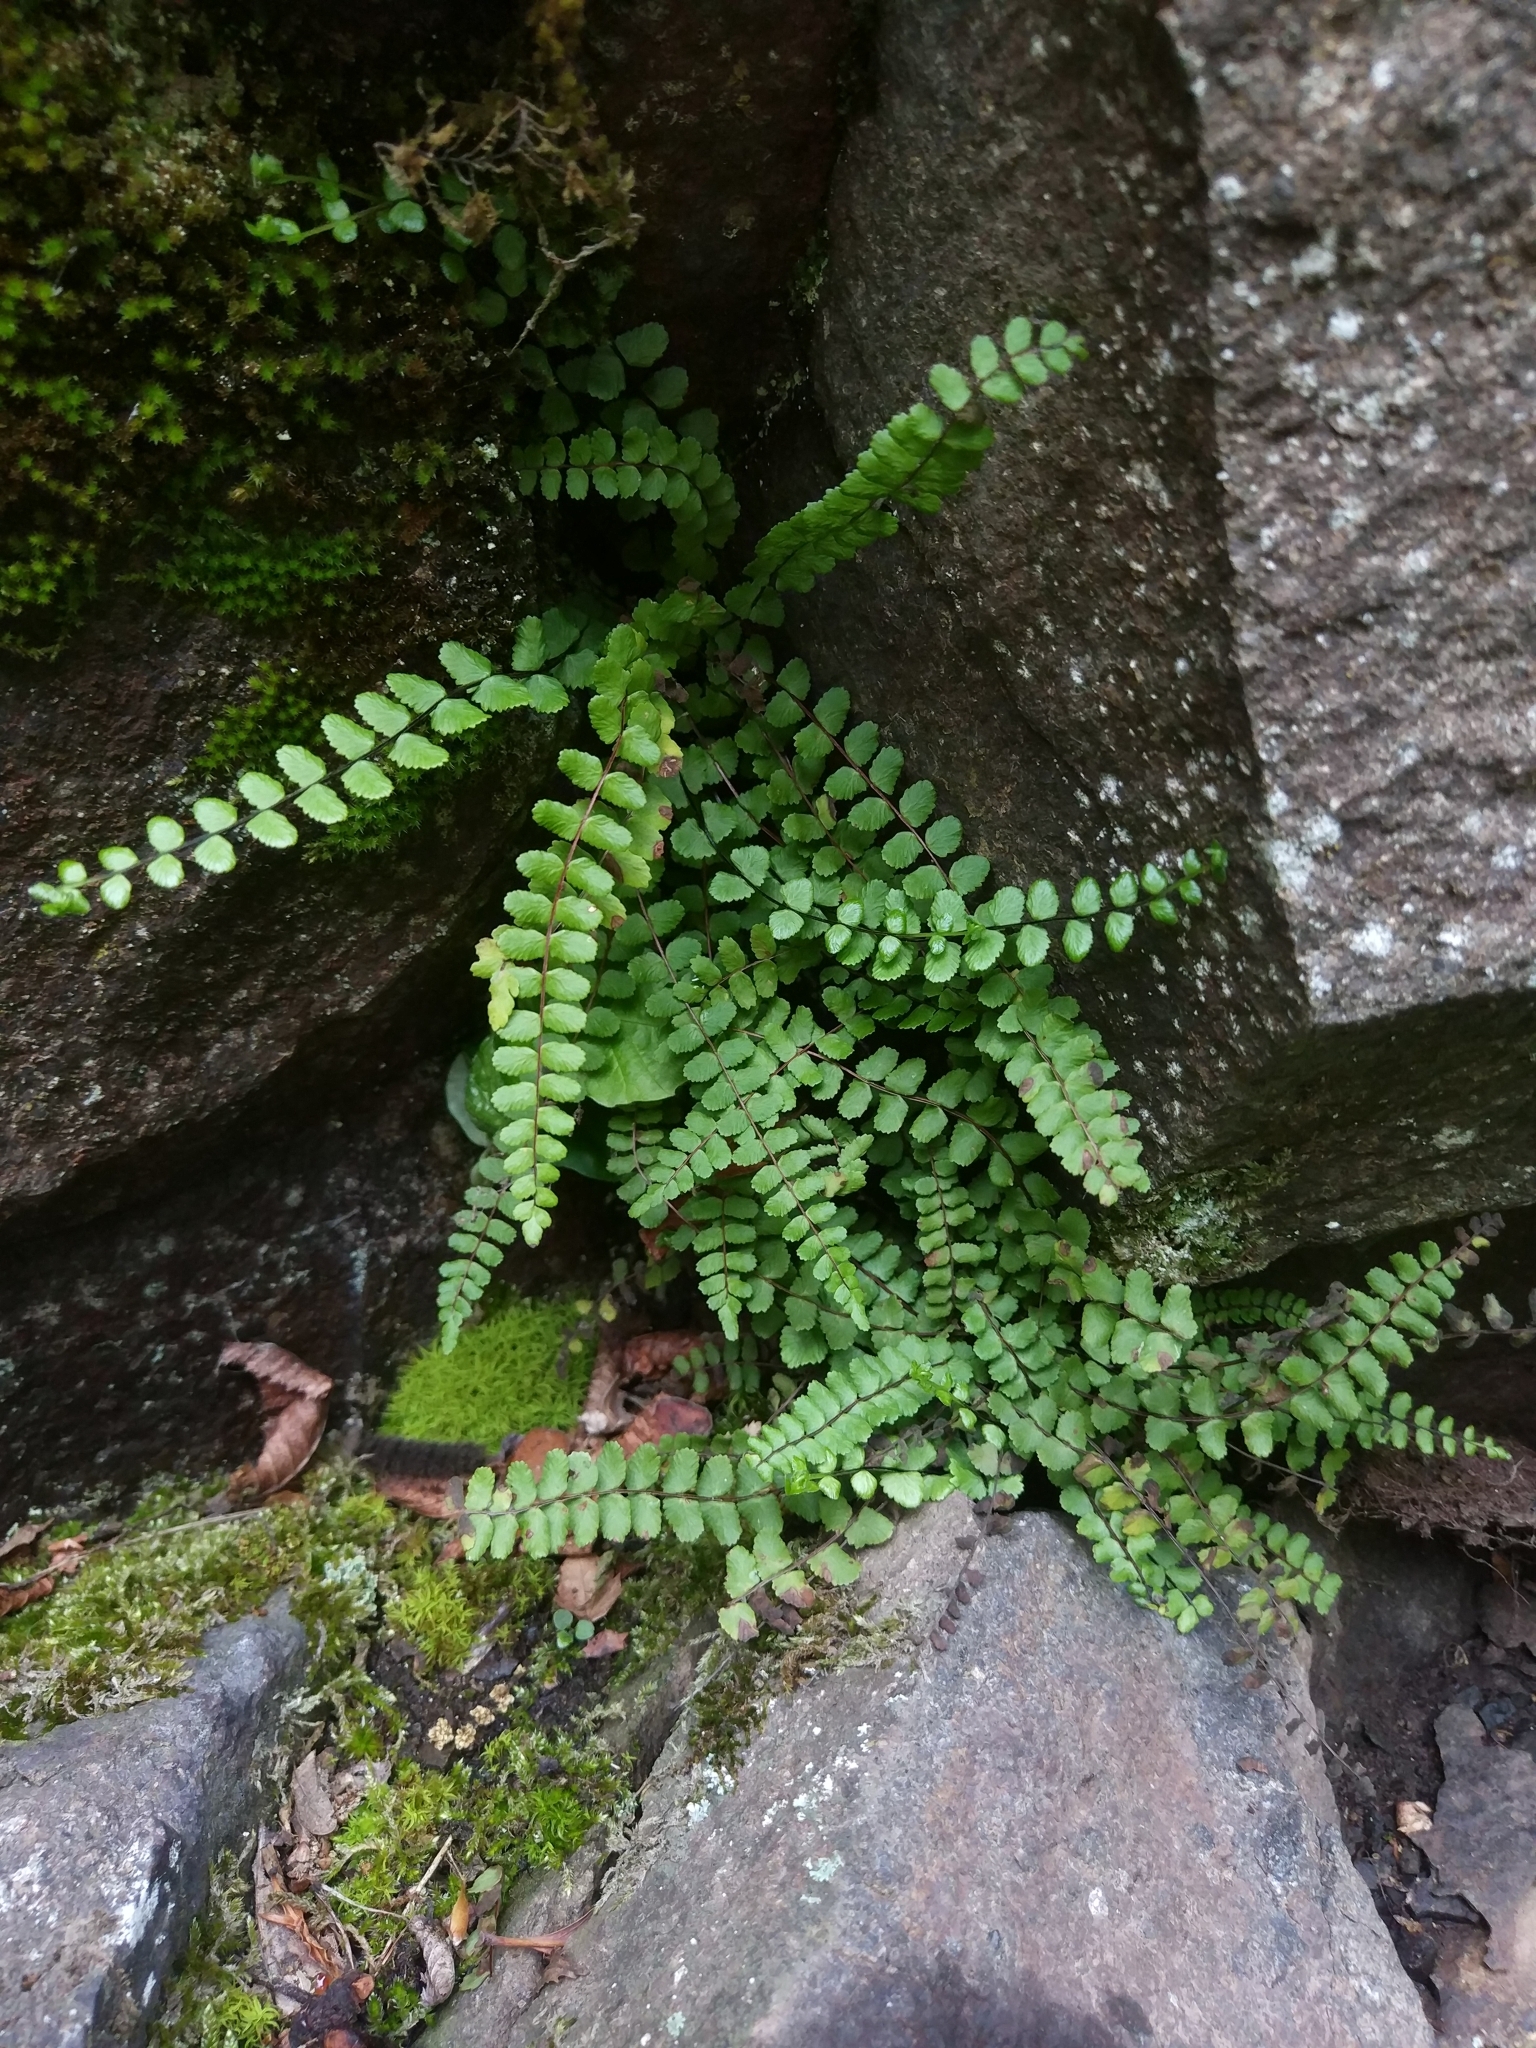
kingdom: Plantae
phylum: Tracheophyta
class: Polypodiopsida
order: Polypodiales
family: Aspleniaceae
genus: Asplenium
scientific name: Asplenium trichomanes
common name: Maidenhair spleenwort
